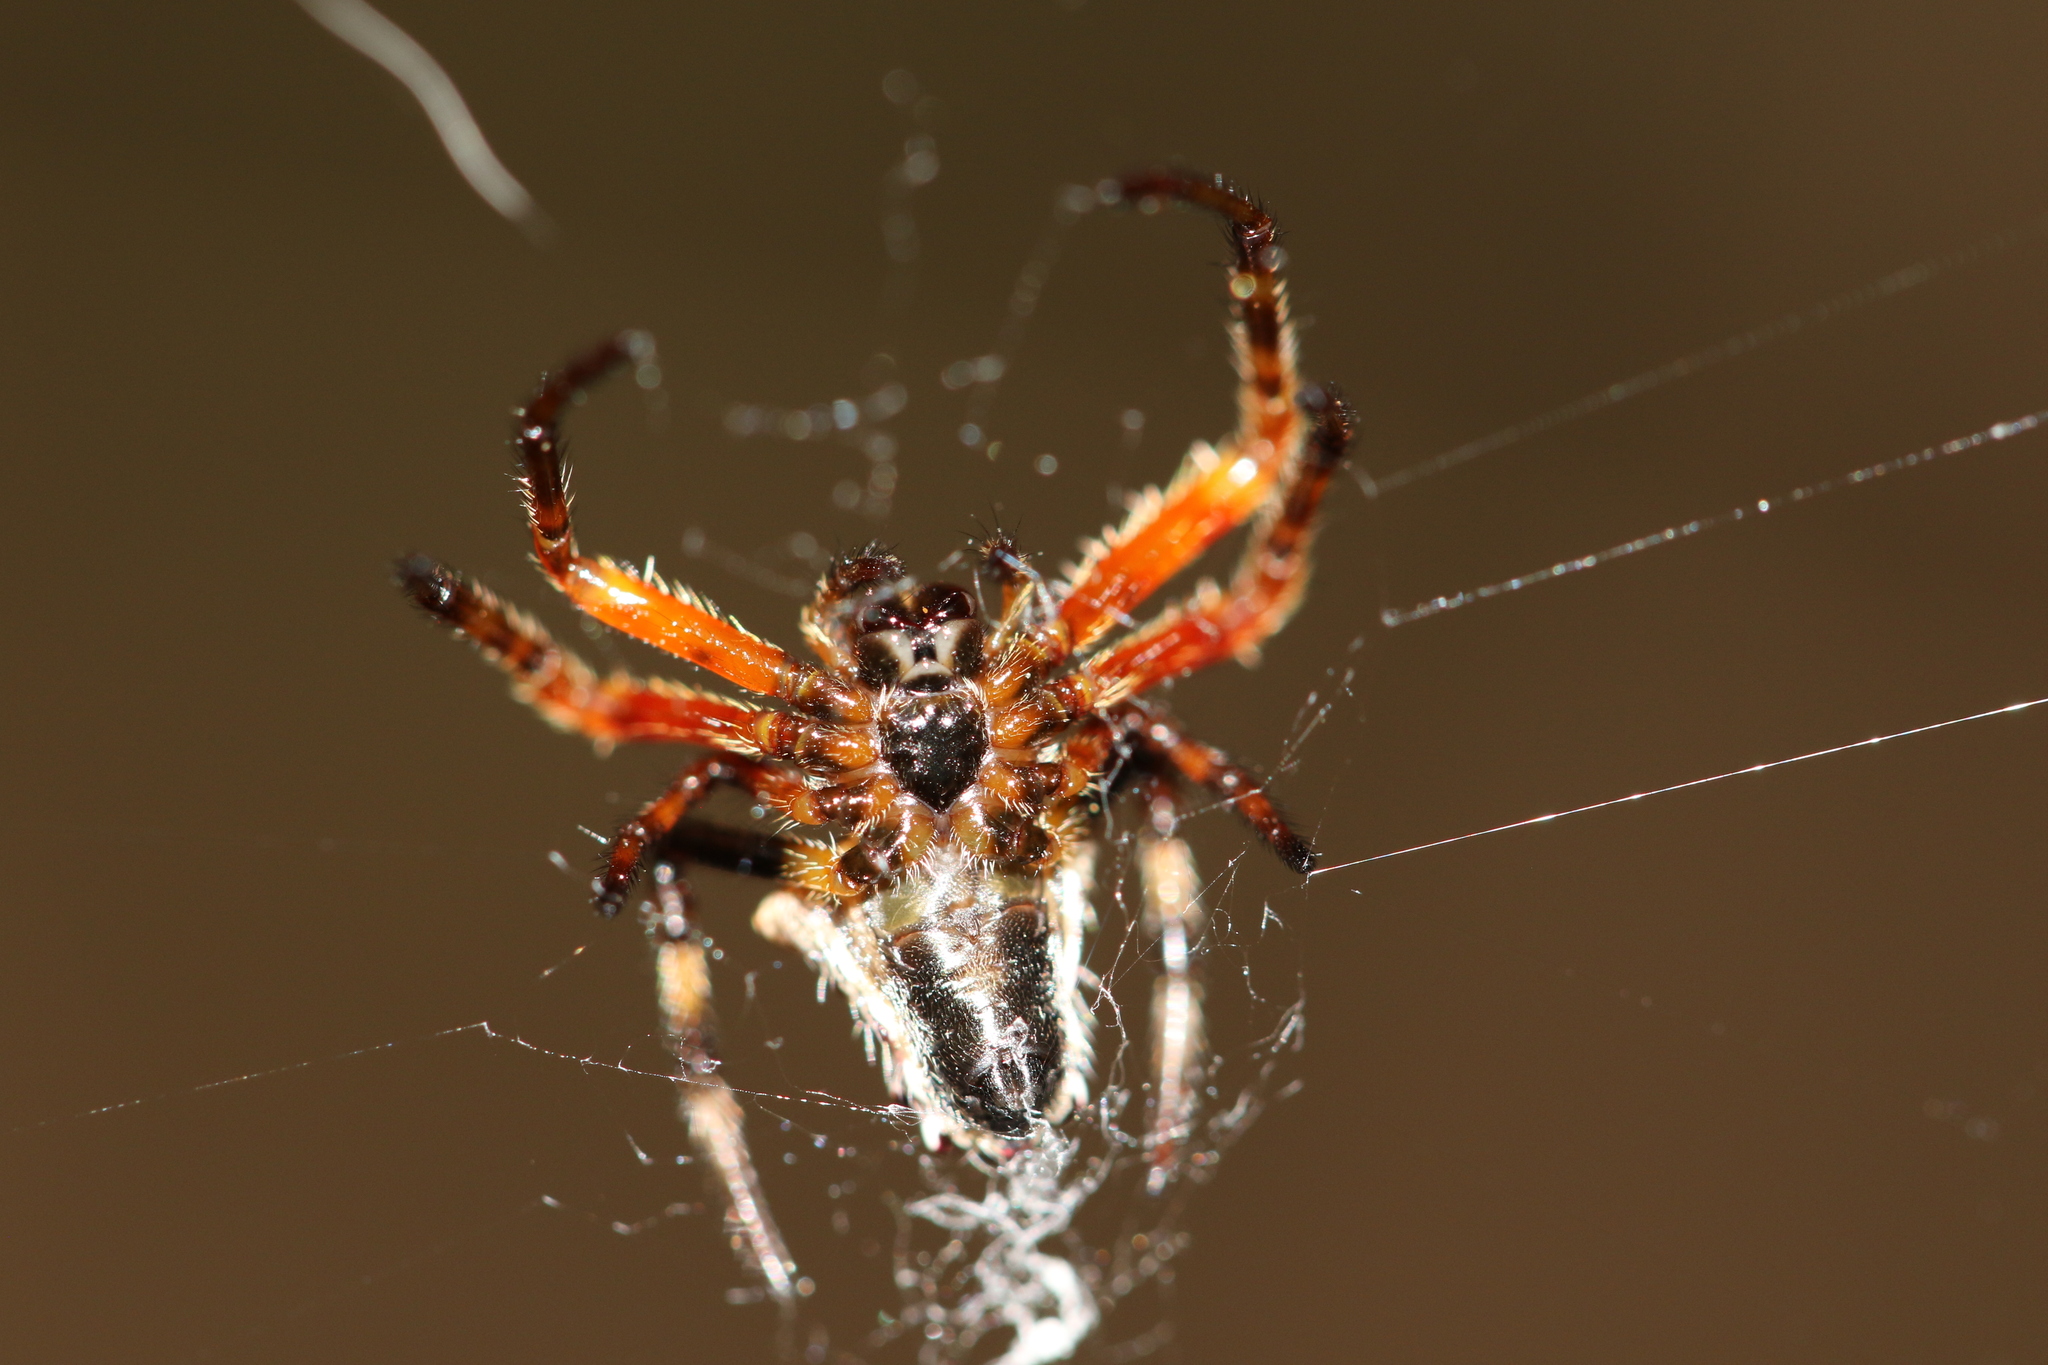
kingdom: Animalia
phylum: Arthropoda
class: Arachnida
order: Araneae
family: Araneidae
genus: Verrucosa
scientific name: Verrucosa scapofracta
